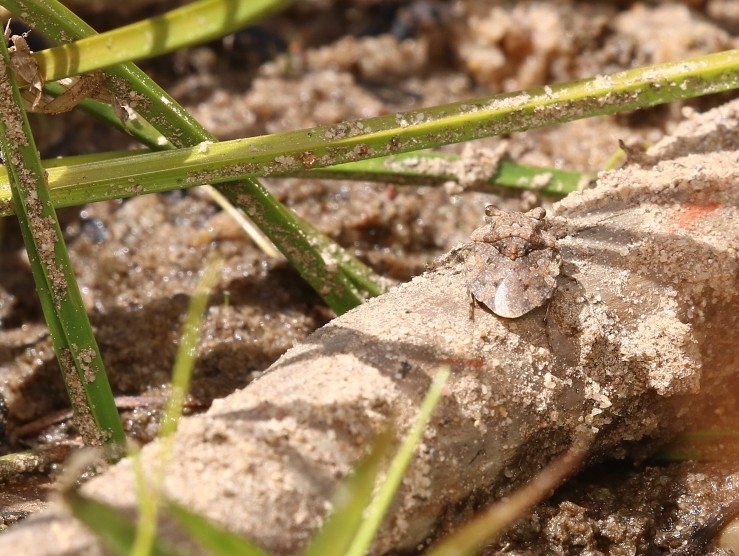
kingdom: Animalia
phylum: Arthropoda
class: Insecta
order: Hemiptera
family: Gelastocoridae
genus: Gelastocoris
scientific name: Gelastocoris oculatus
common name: Toad bug
